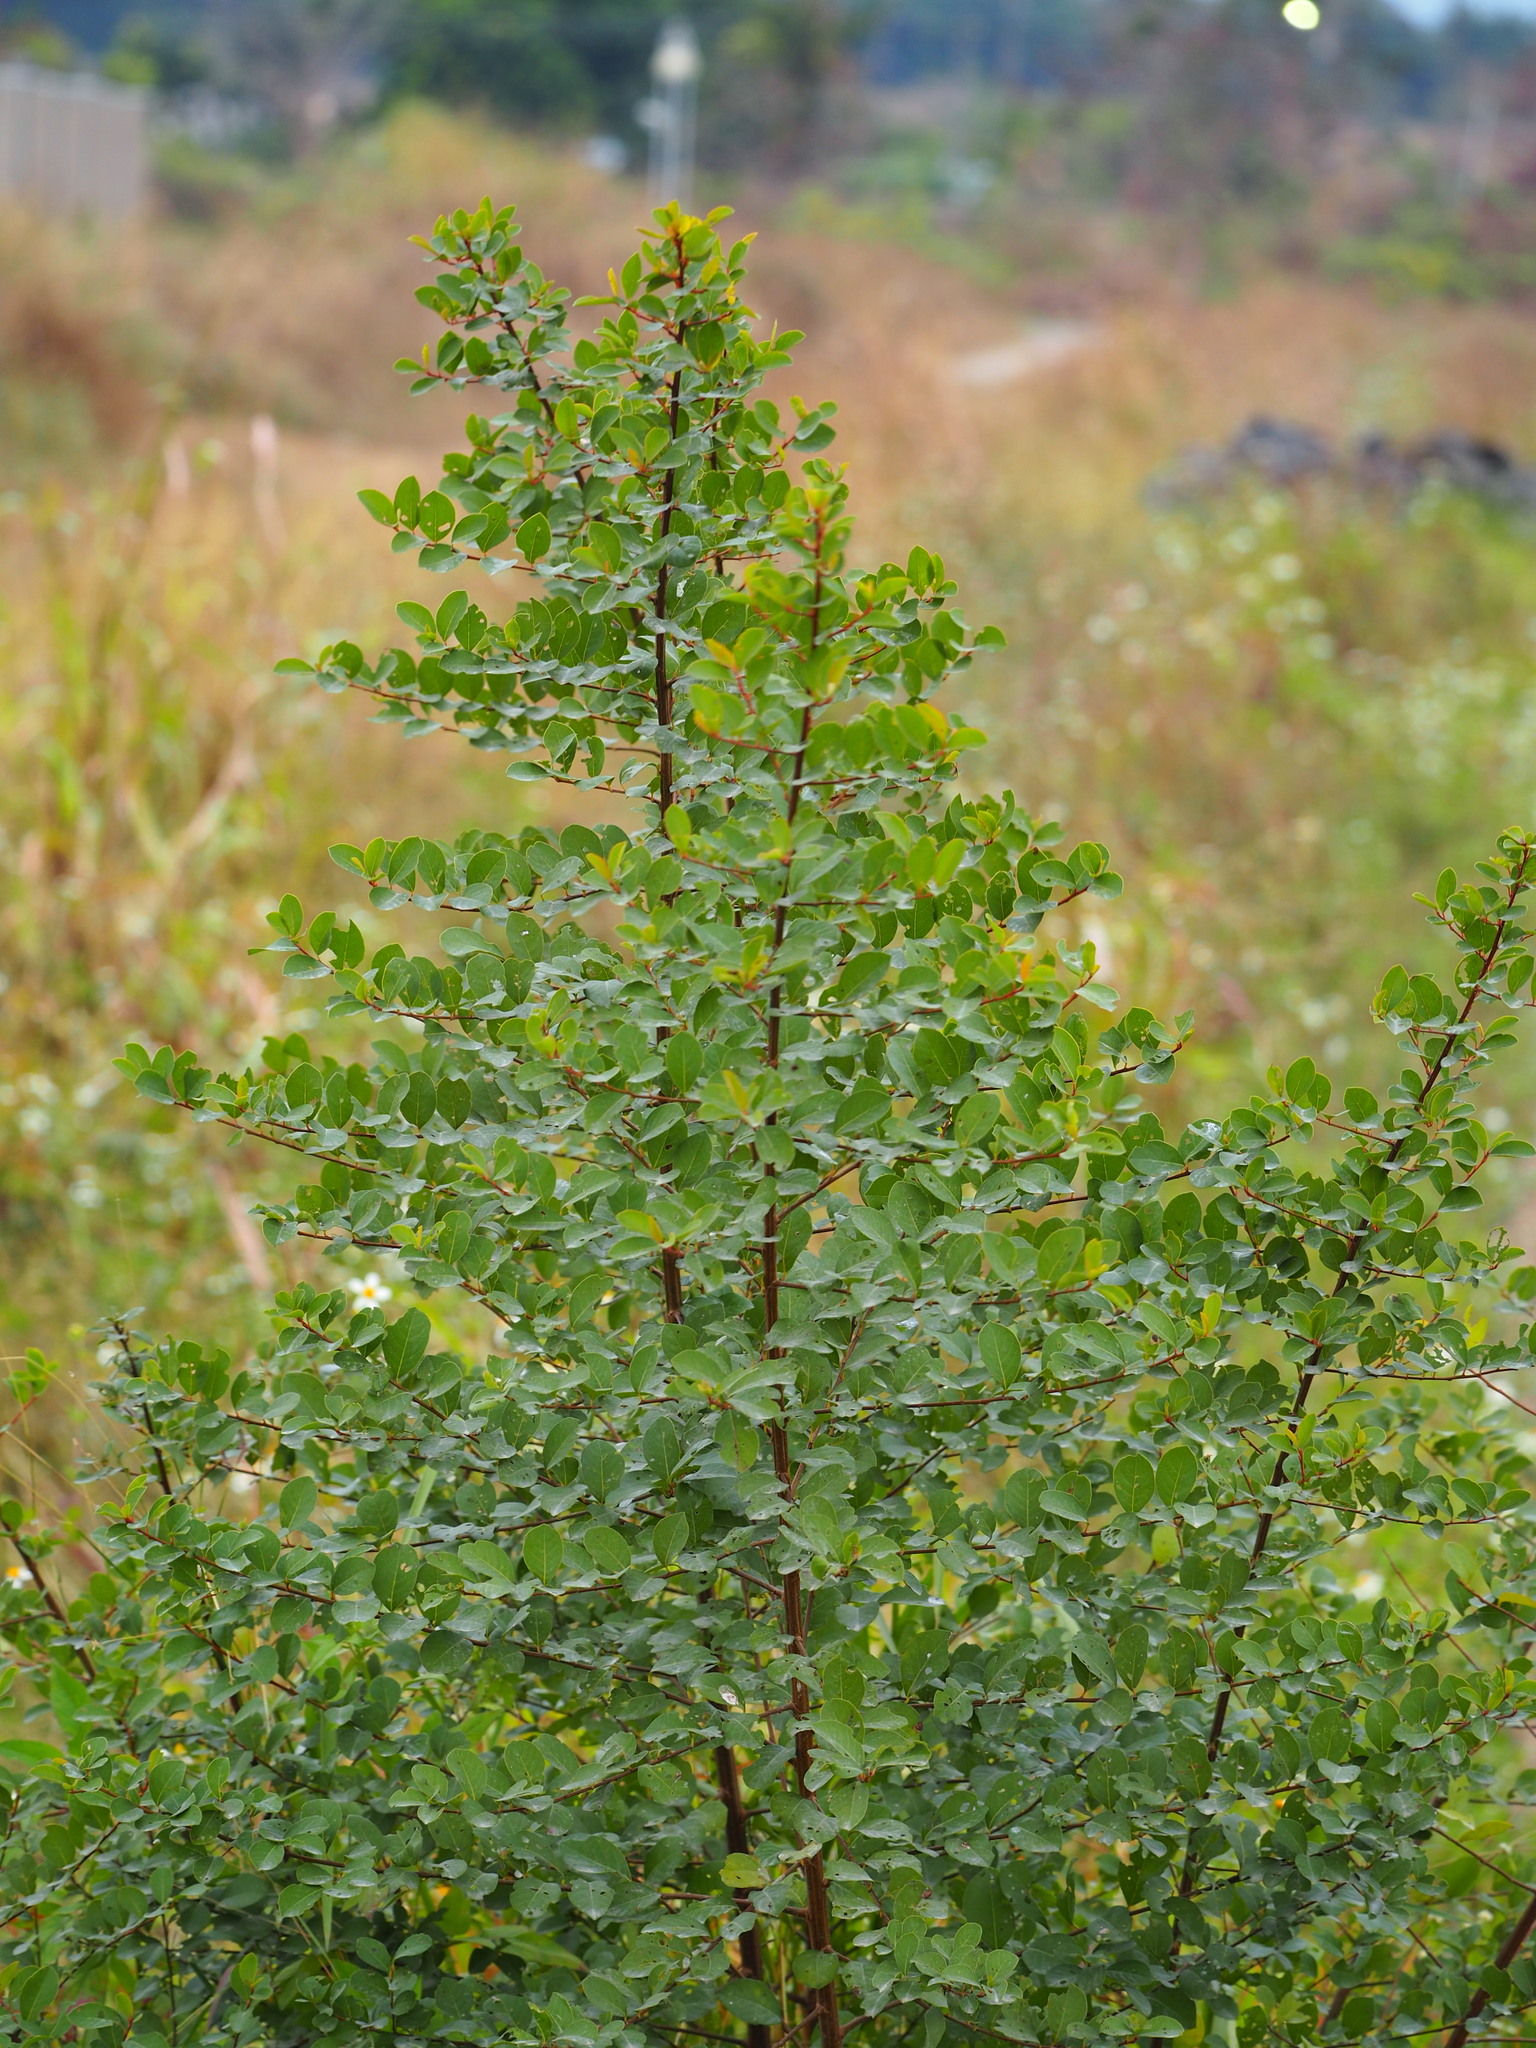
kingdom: Plantae
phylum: Tracheophyta
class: Magnoliopsida
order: Malpighiales
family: Phyllanthaceae
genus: Flueggea
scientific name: Flueggea virosa
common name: Common bushweed
